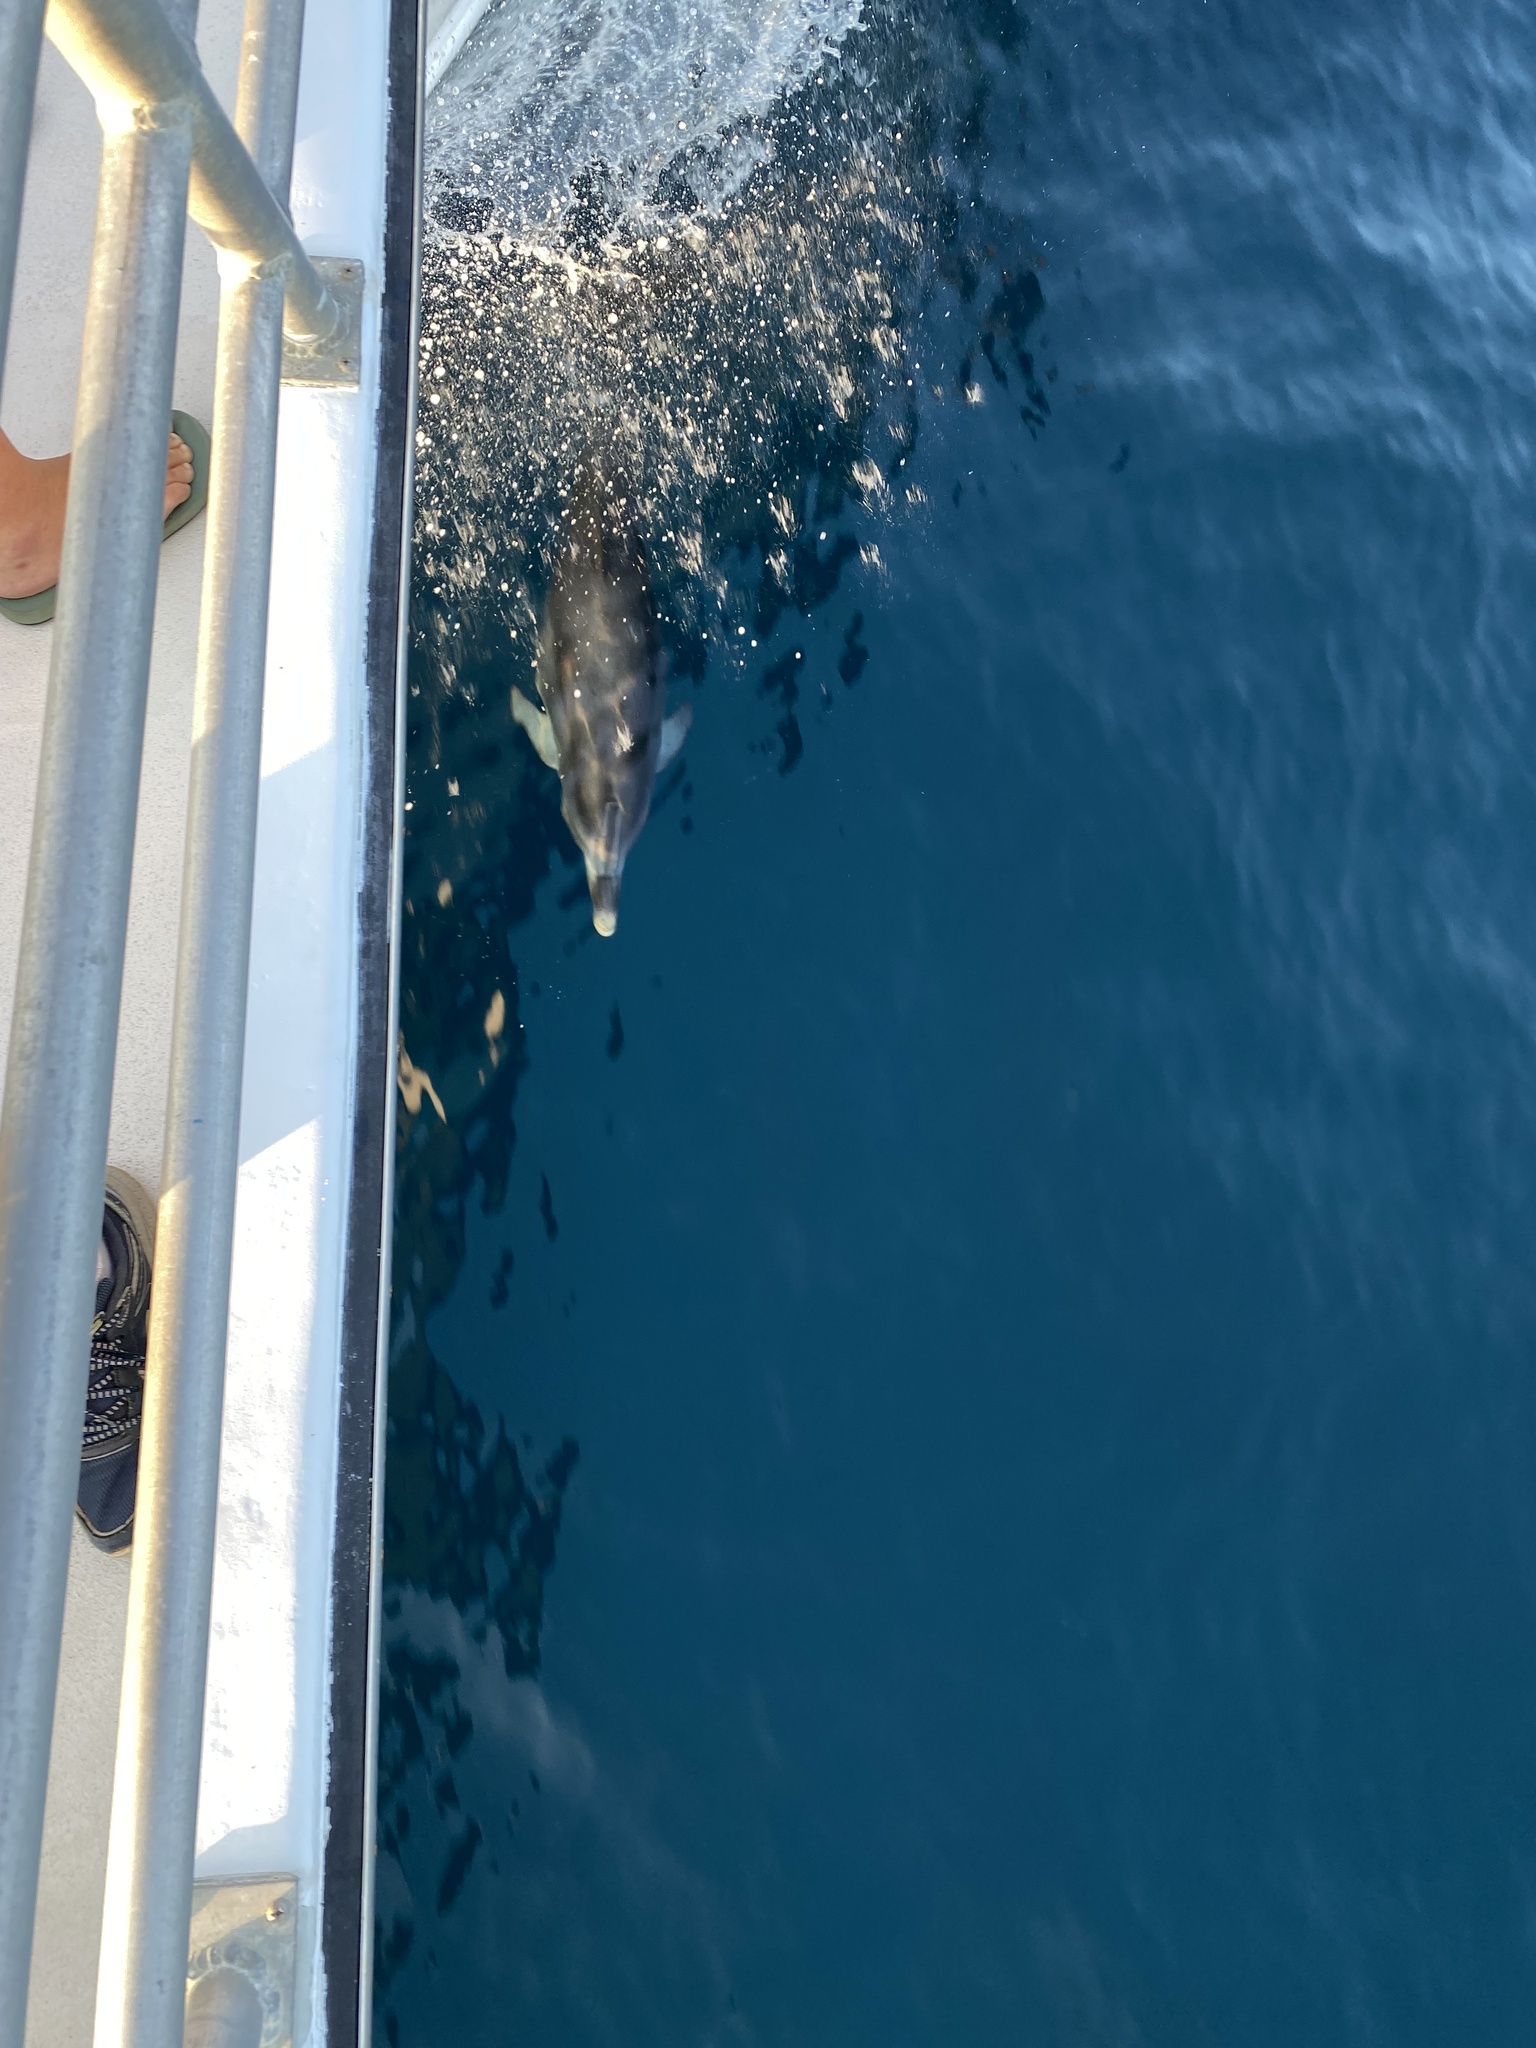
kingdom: Animalia
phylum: Chordata
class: Mammalia
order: Cetacea
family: Delphinidae
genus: Stenella
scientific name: Stenella frontalis
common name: Atlantic spotted dolphin
